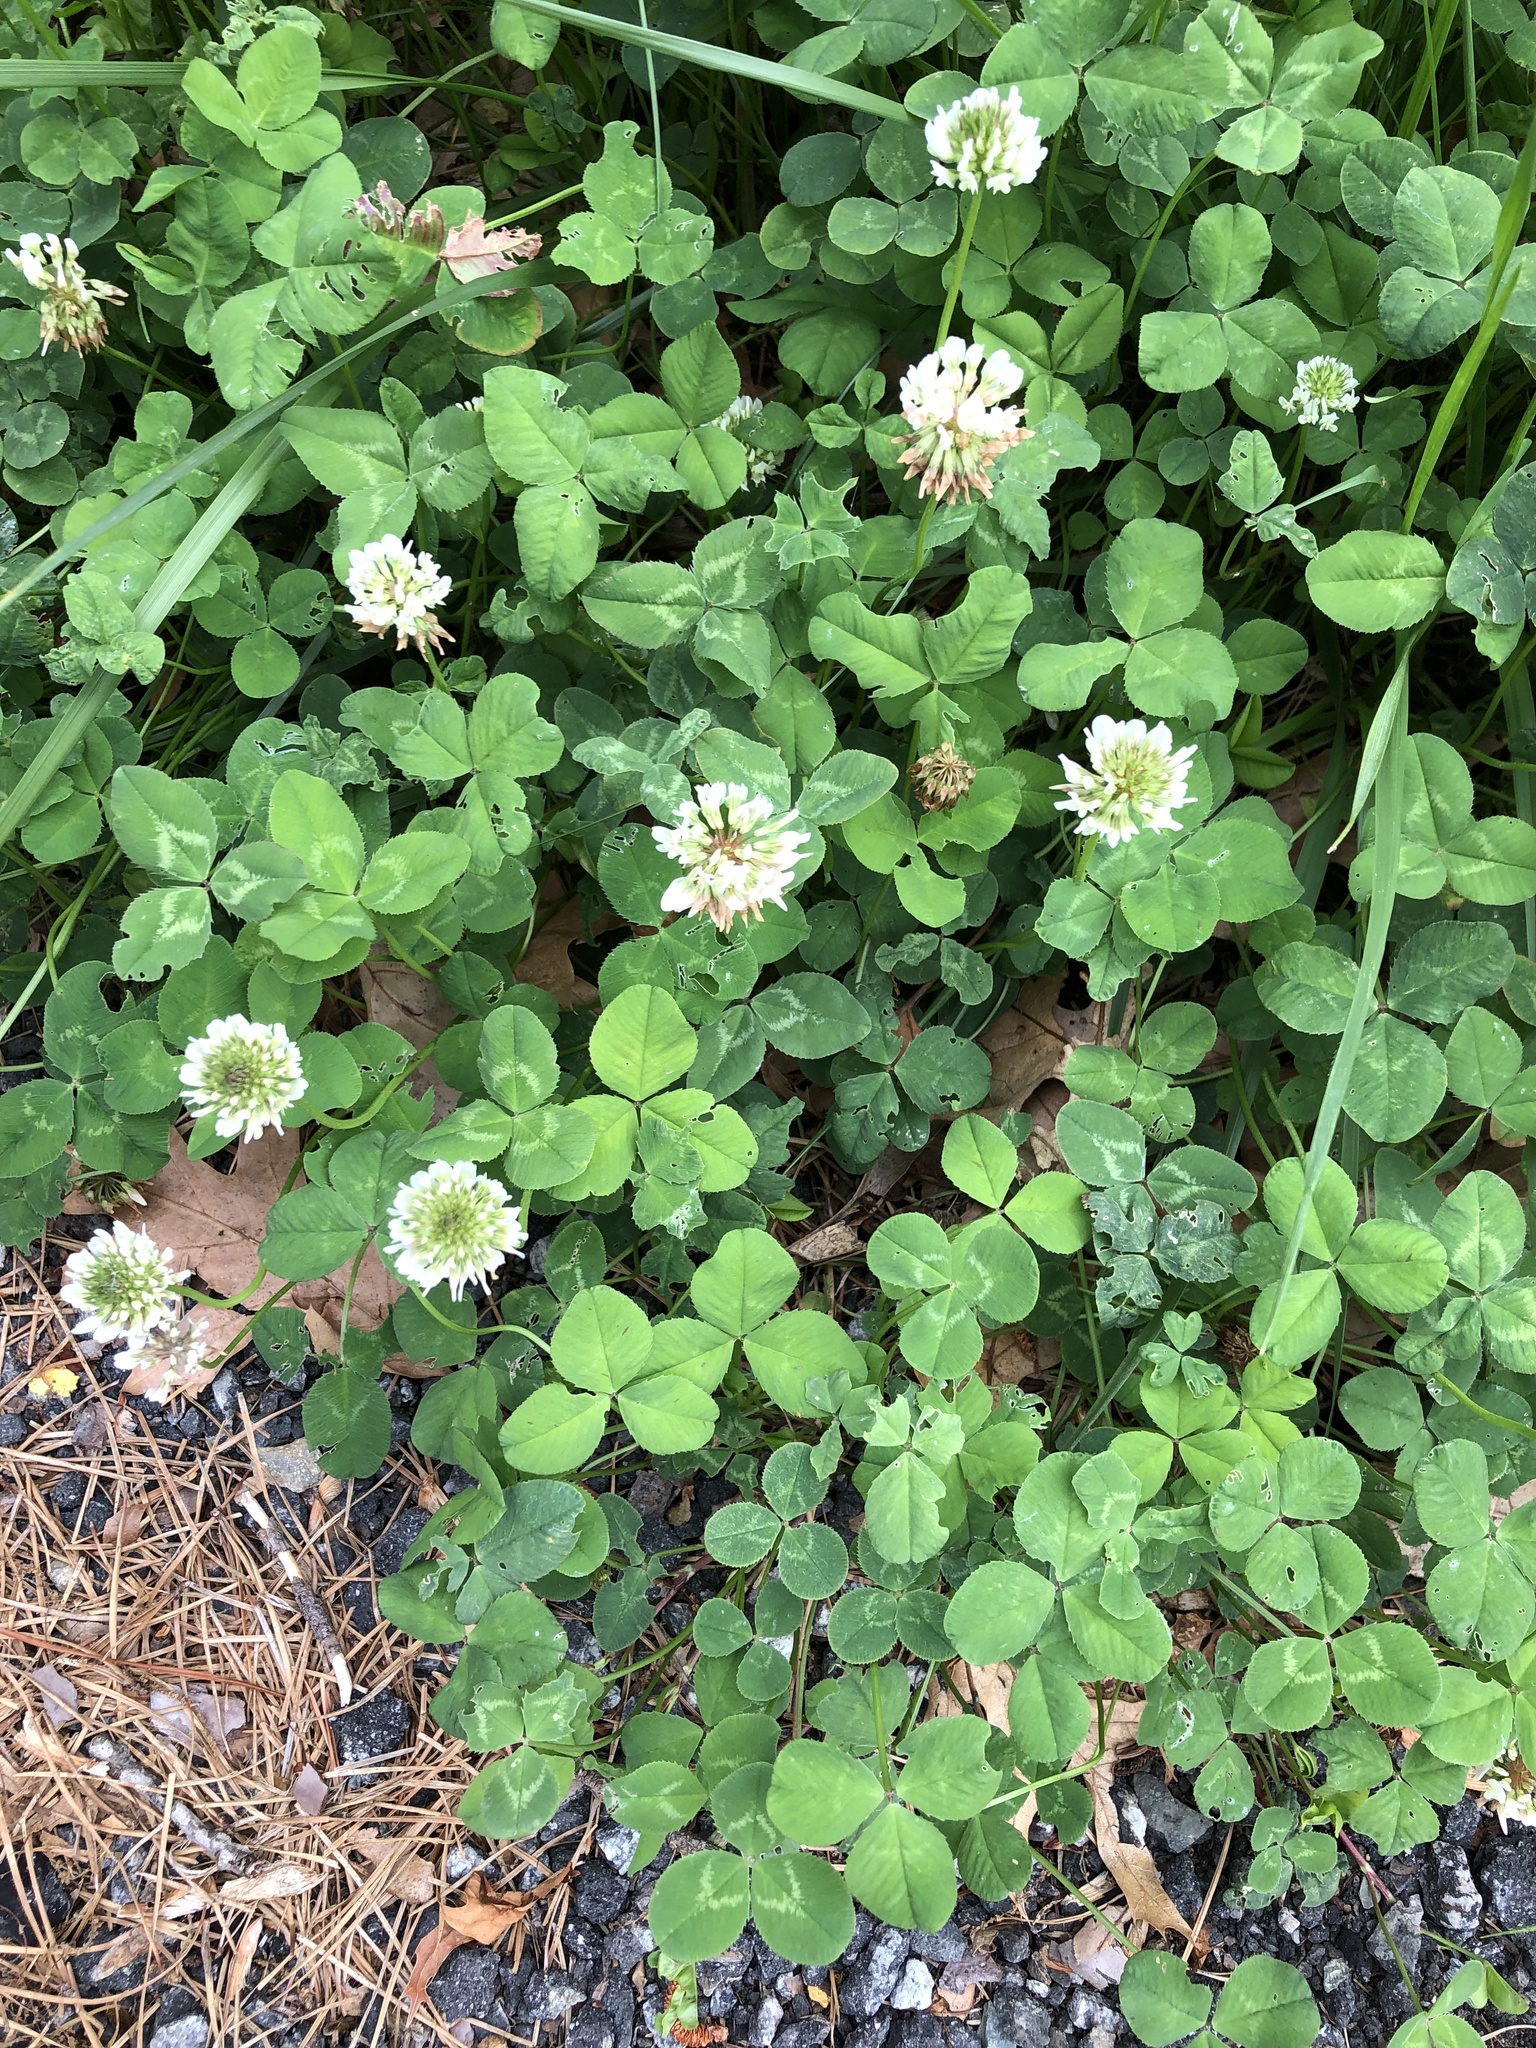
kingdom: Plantae
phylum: Tracheophyta
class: Magnoliopsida
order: Fabales
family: Fabaceae
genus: Trifolium
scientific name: Trifolium repens
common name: White clover
